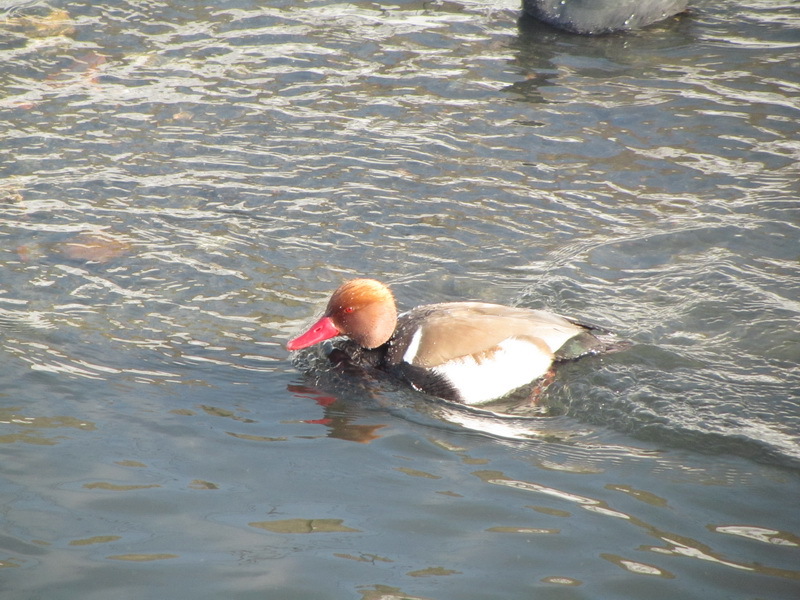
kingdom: Animalia
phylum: Chordata
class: Aves
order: Anseriformes
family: Anatidae
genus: Netta
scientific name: Netta rufina
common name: Red-crested pochard
